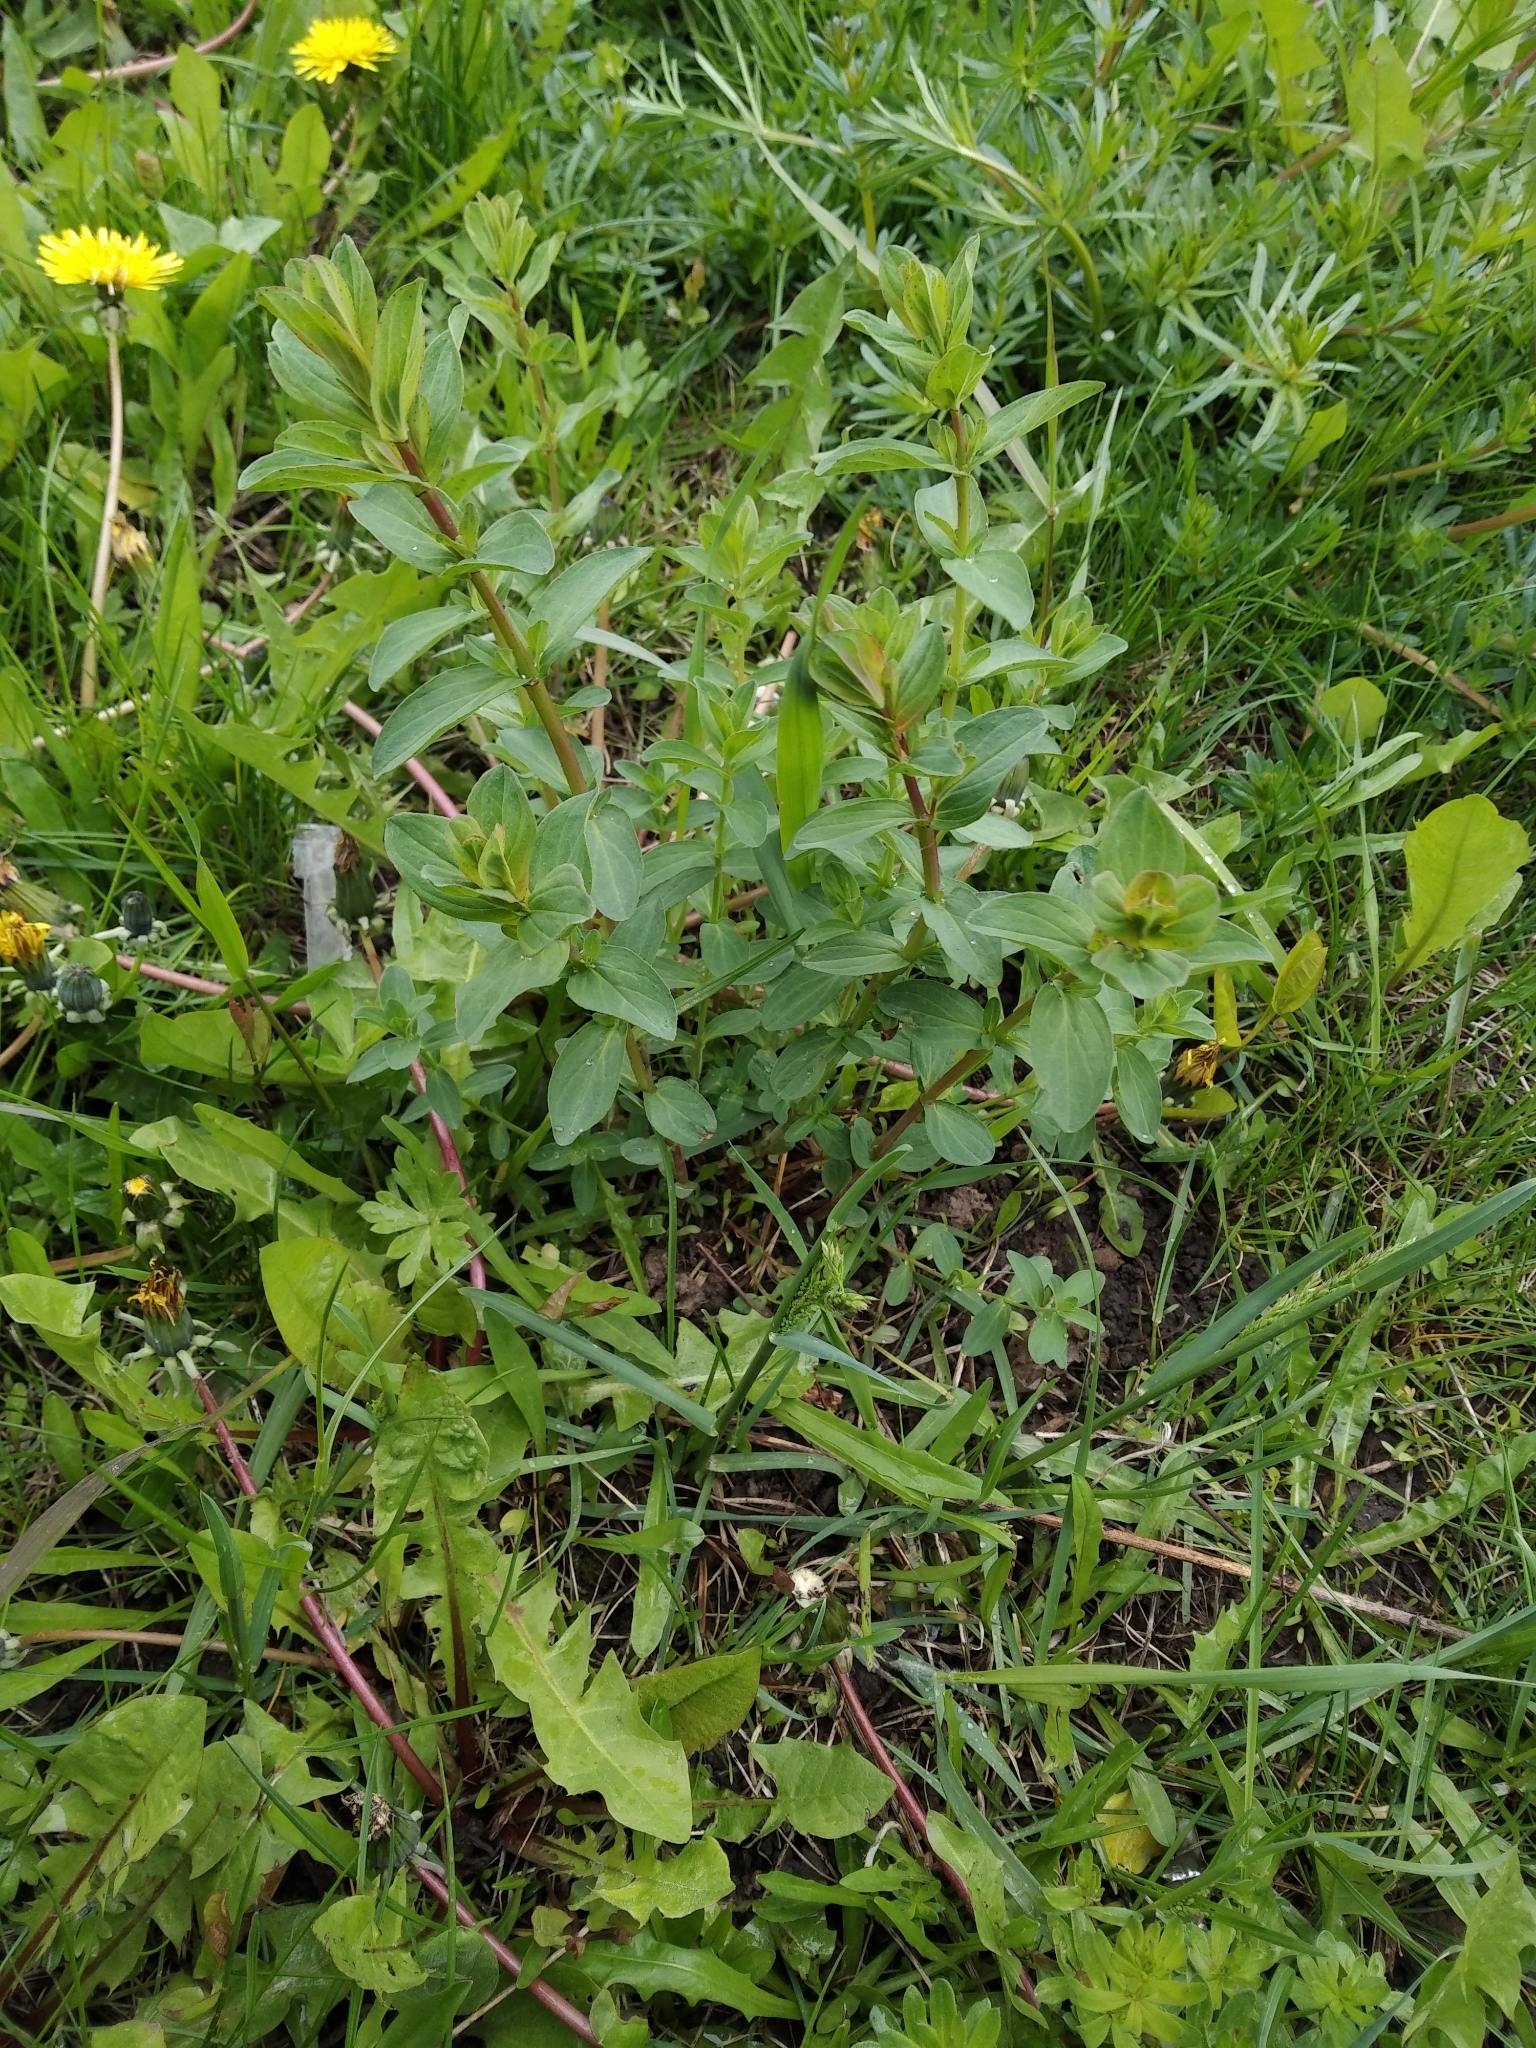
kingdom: Plantae
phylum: Tracheophyta
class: Magnoliopsida
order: Malpighiales
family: Hypericaceae
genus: Hypericum
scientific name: Hypericum perforatum
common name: Common st. johnswort
